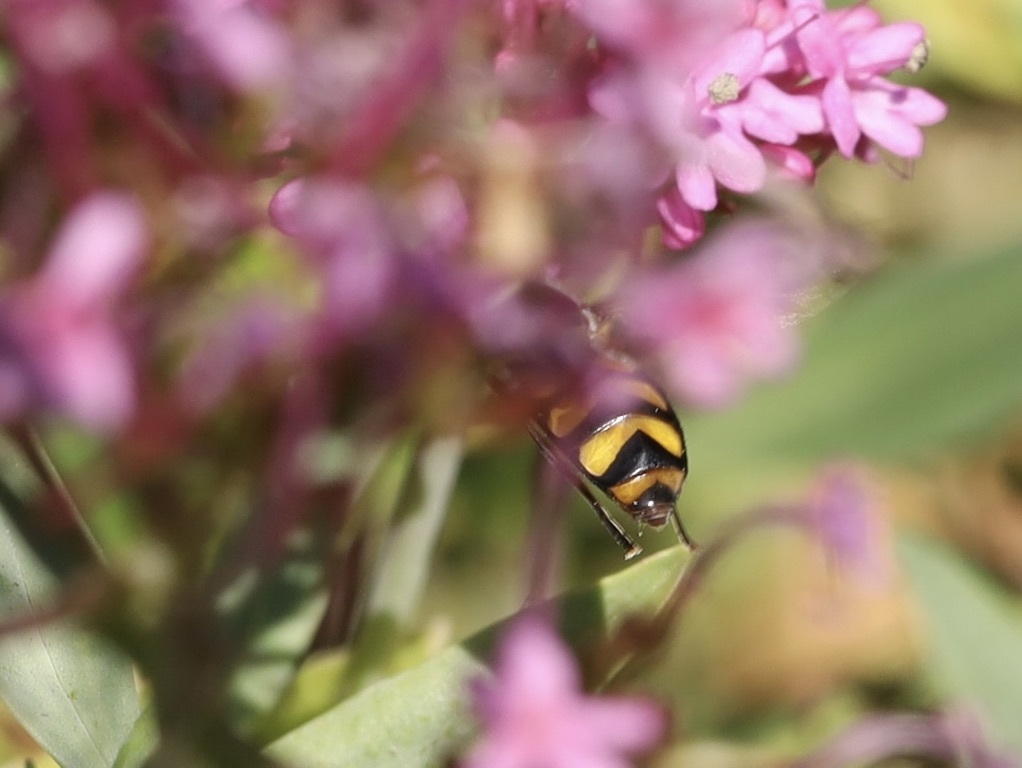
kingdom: Animalia
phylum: Arthropoda
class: Insecta
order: Diptera
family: Syrphidae
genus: Didea
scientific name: Didea fuscipes
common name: Undivided lucent
